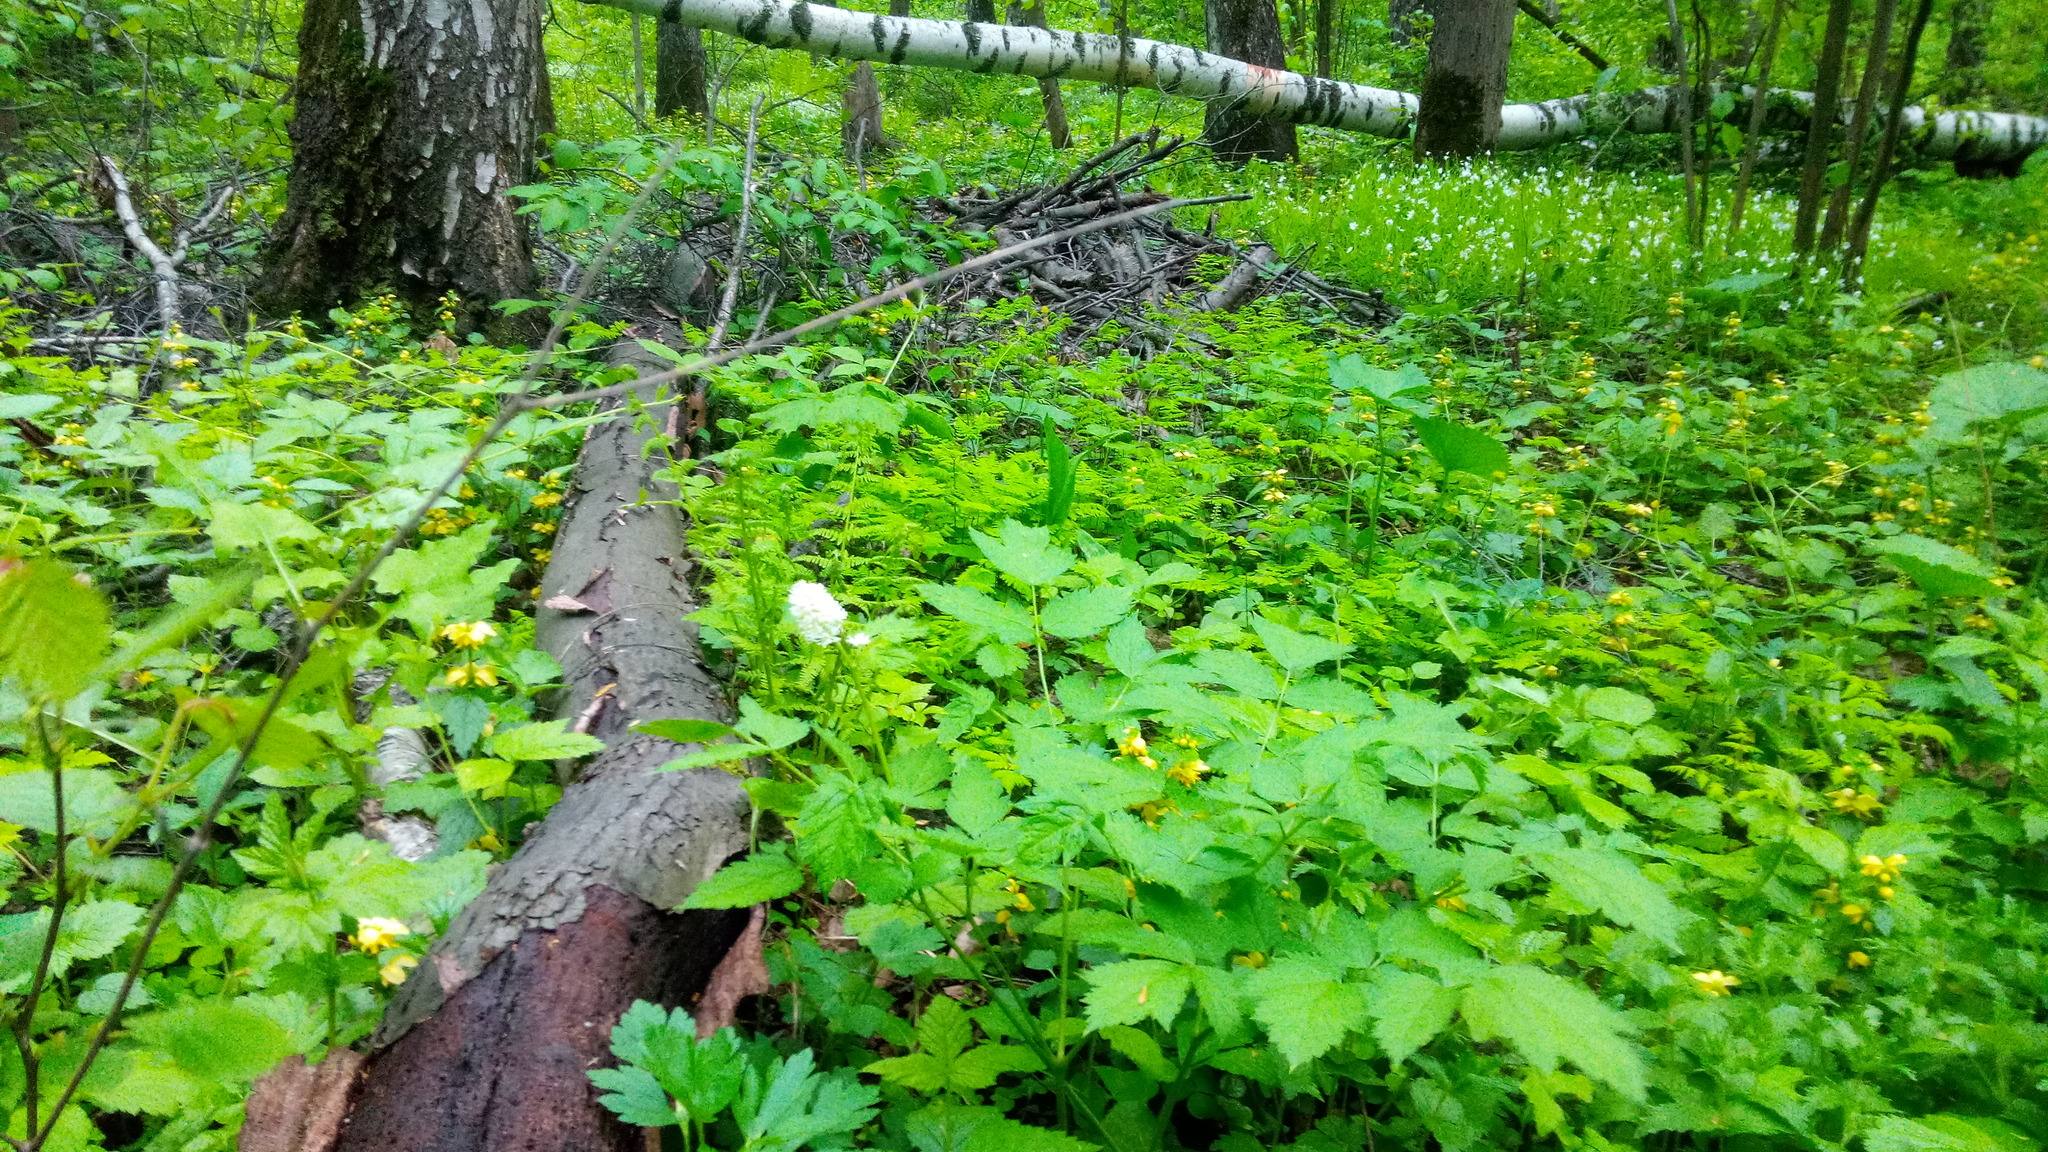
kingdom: Plantae
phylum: Tracheophyta
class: Magnoliopsida
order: Ranunculales
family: Ranunculaceae
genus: Actaea
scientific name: Actaea spicata
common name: Baneberry
